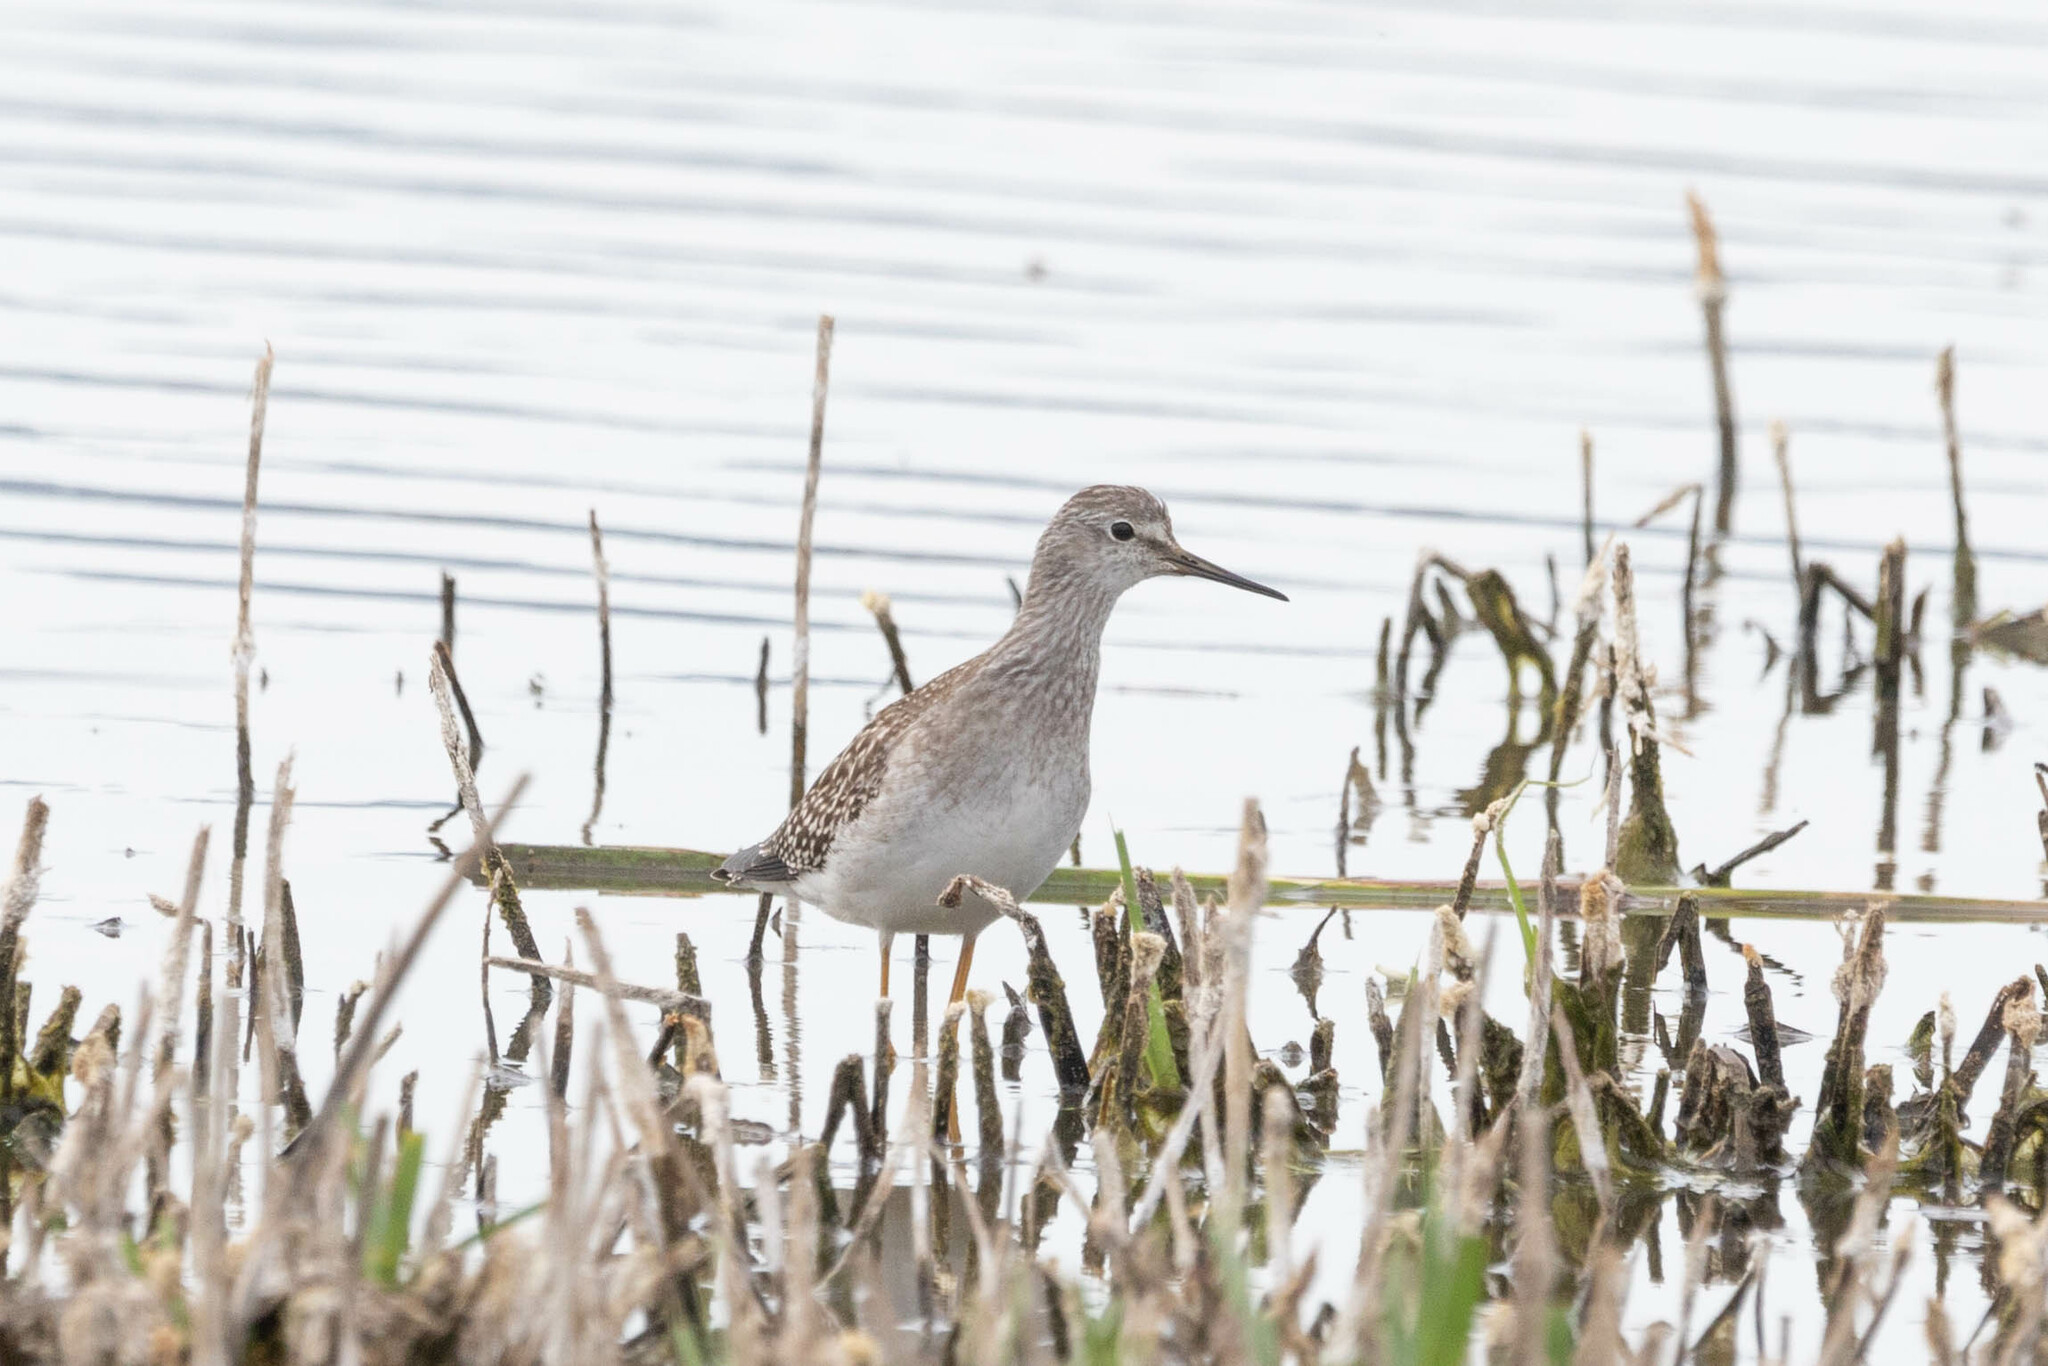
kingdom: Animalia
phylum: Chordata
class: Aves
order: Charadriiformes
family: Scolopacidae
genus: Tringa
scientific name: Tringa flavipes
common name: Lesser yellowlegs
